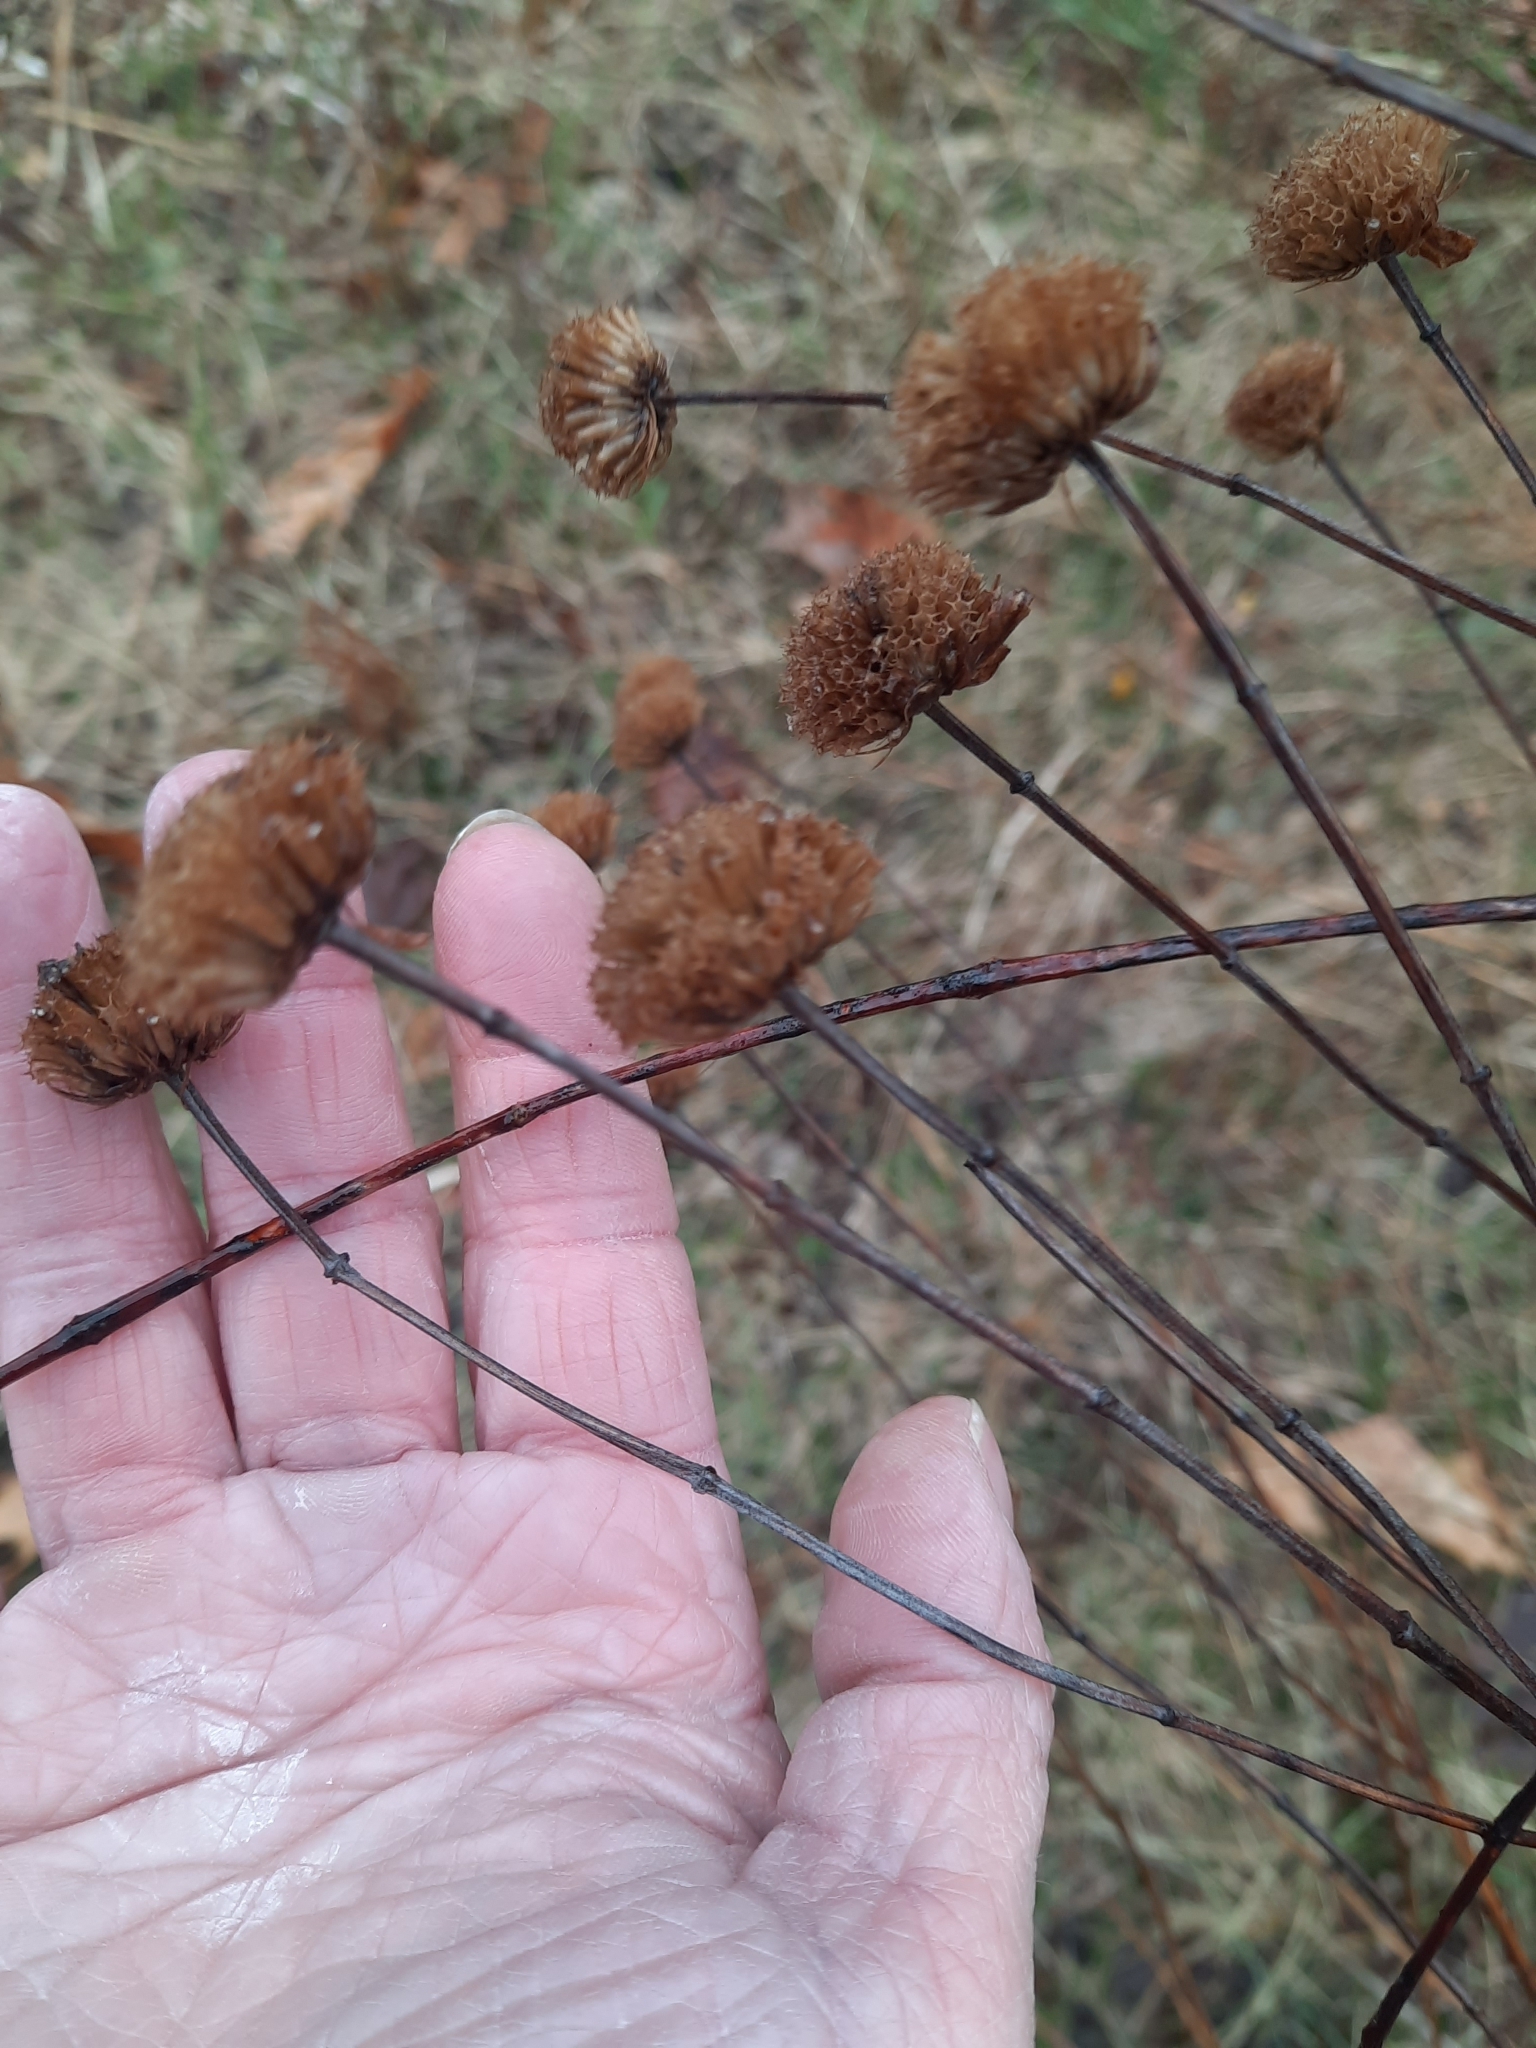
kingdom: Plantae
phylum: Tracheophyta
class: Magnoliopsida
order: Lamiales
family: Lamiaceae
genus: Monarda
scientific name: Monarda fistulosa
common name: Purple beebalm
